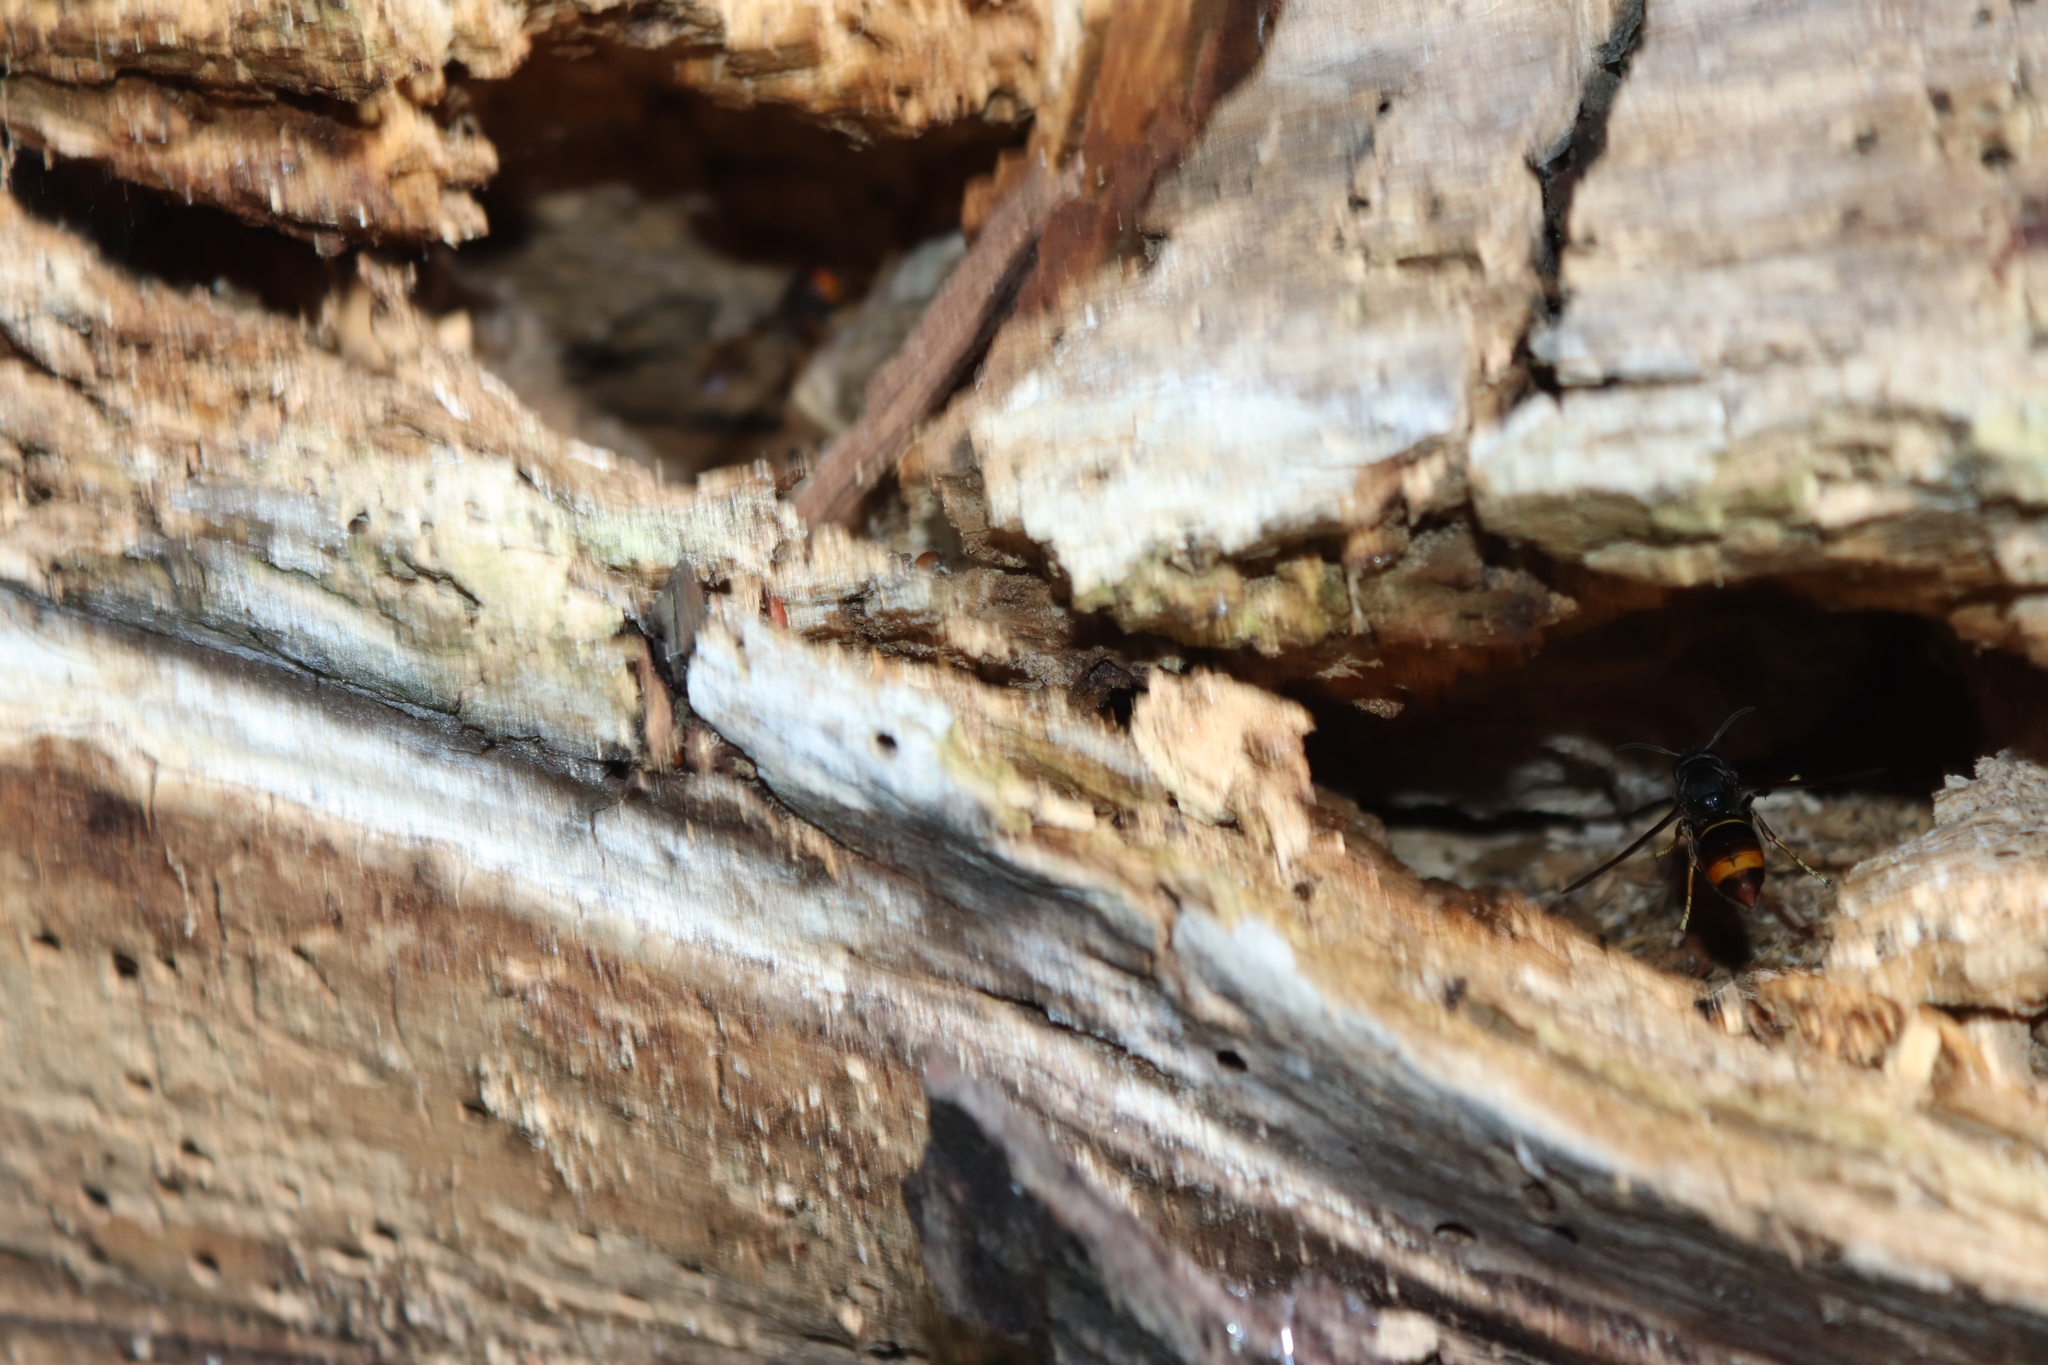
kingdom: Animalia
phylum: Arthropoda
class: Insecta
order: Hymenoptera
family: Vespidae
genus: Vespa
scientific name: Vespa velutina
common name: Asian hornet
